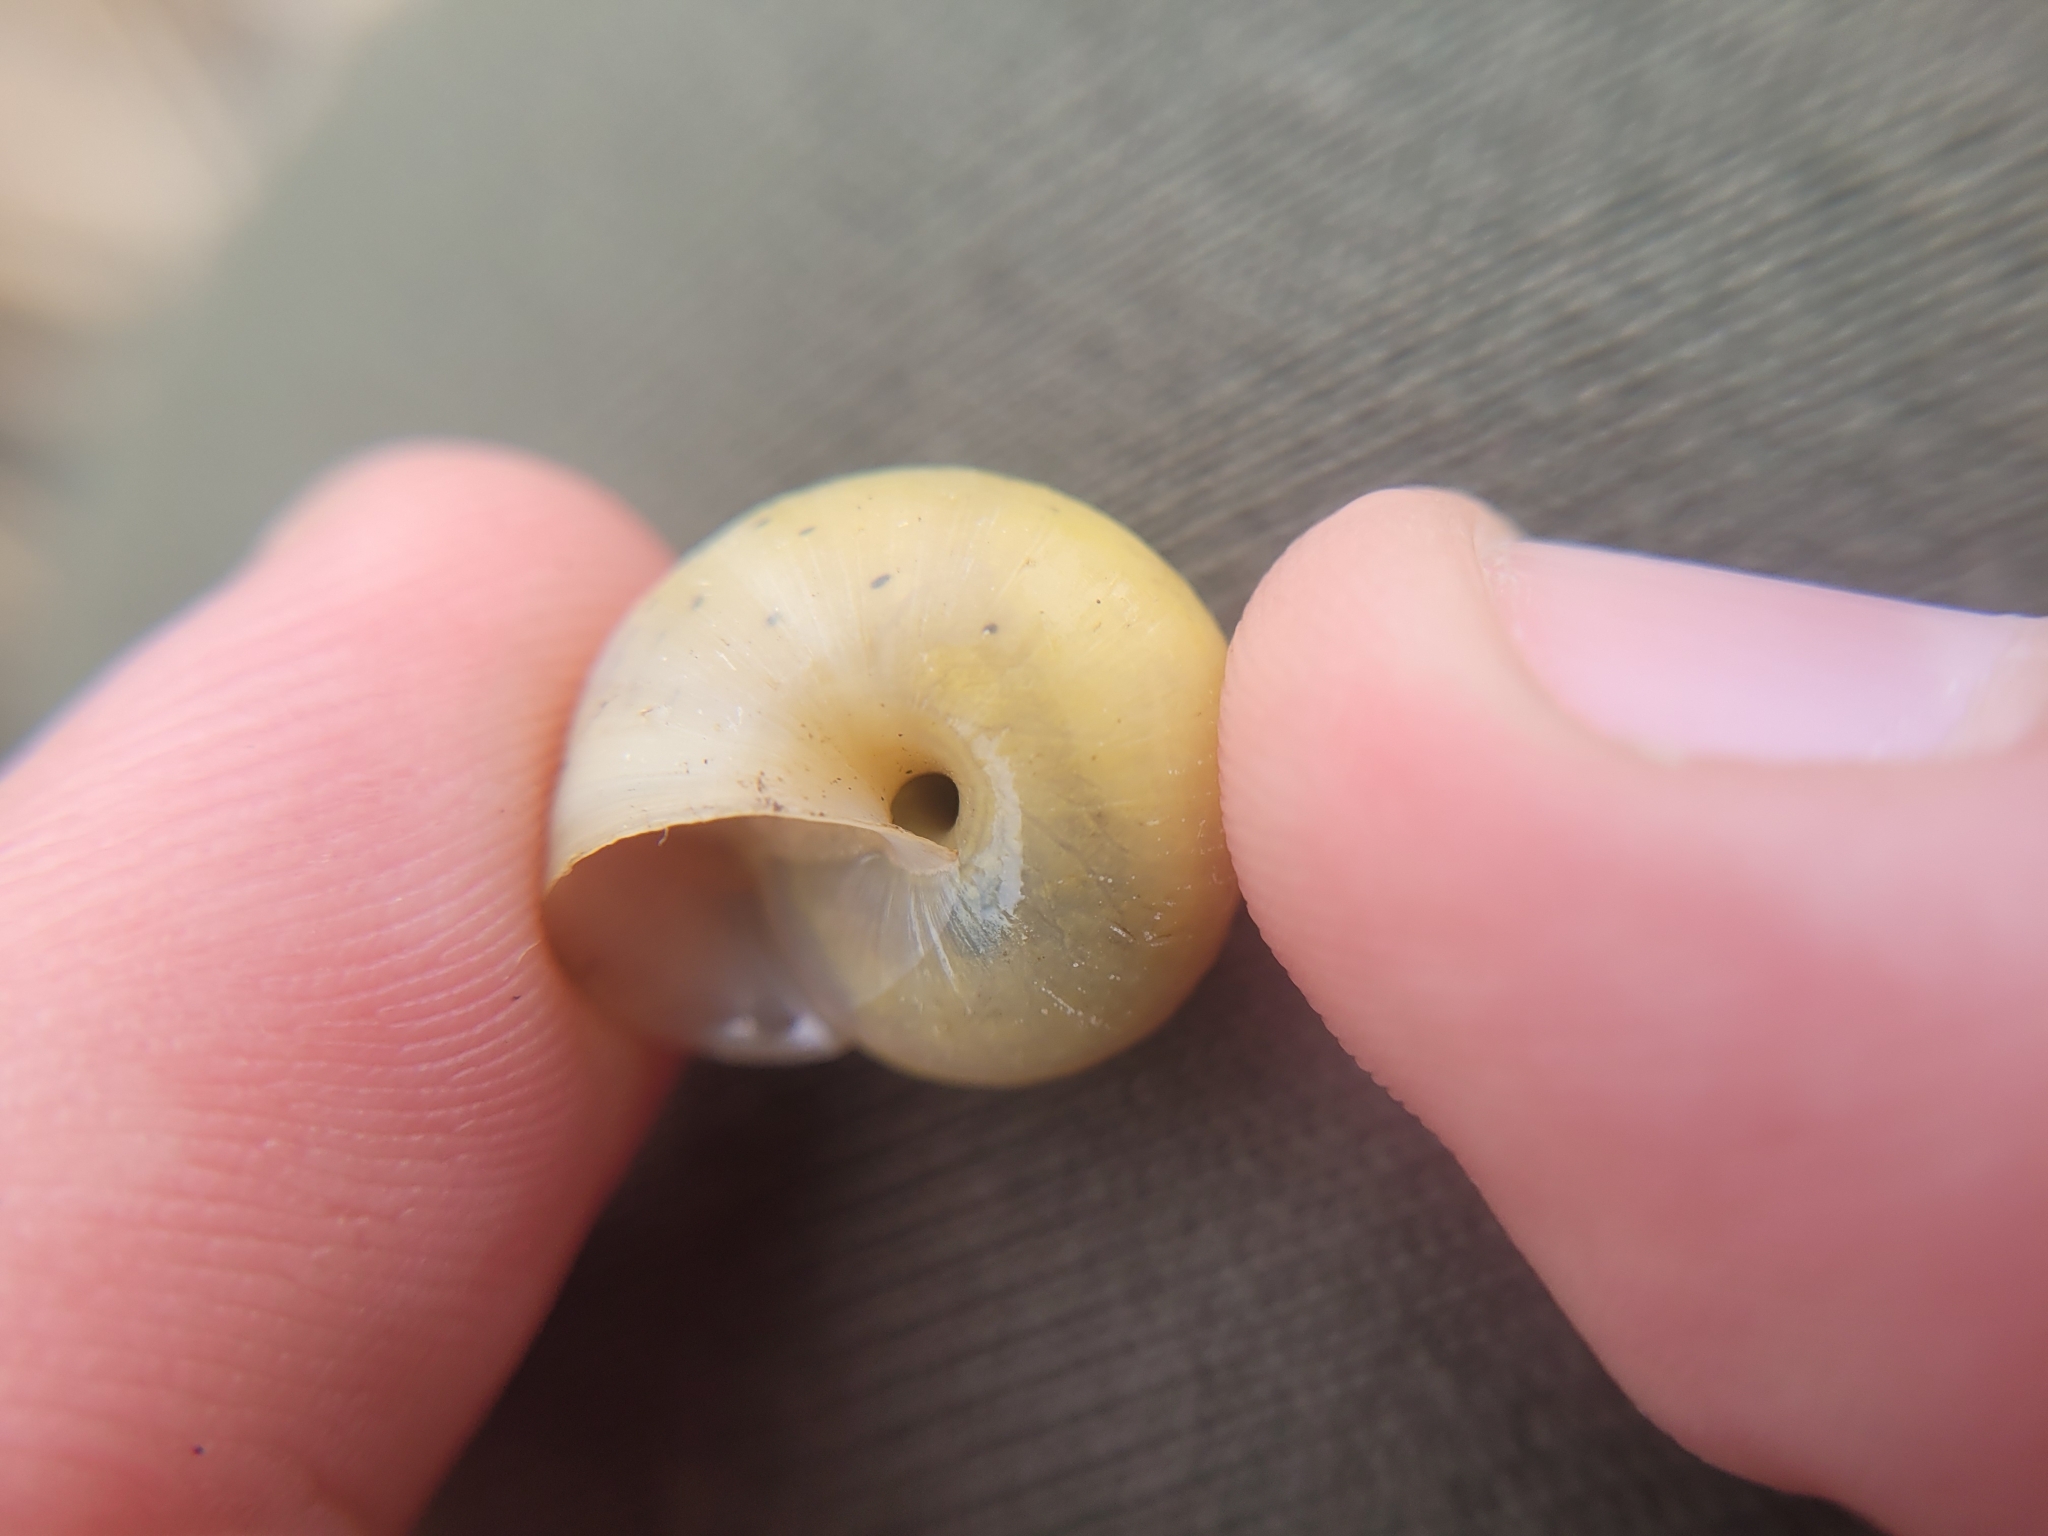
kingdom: Animalia
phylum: Mollusca
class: Gastropoda
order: Stylommatophora
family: Camaenidae
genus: Fruticicola
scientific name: Fruticicola fruticum
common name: Bush snail
